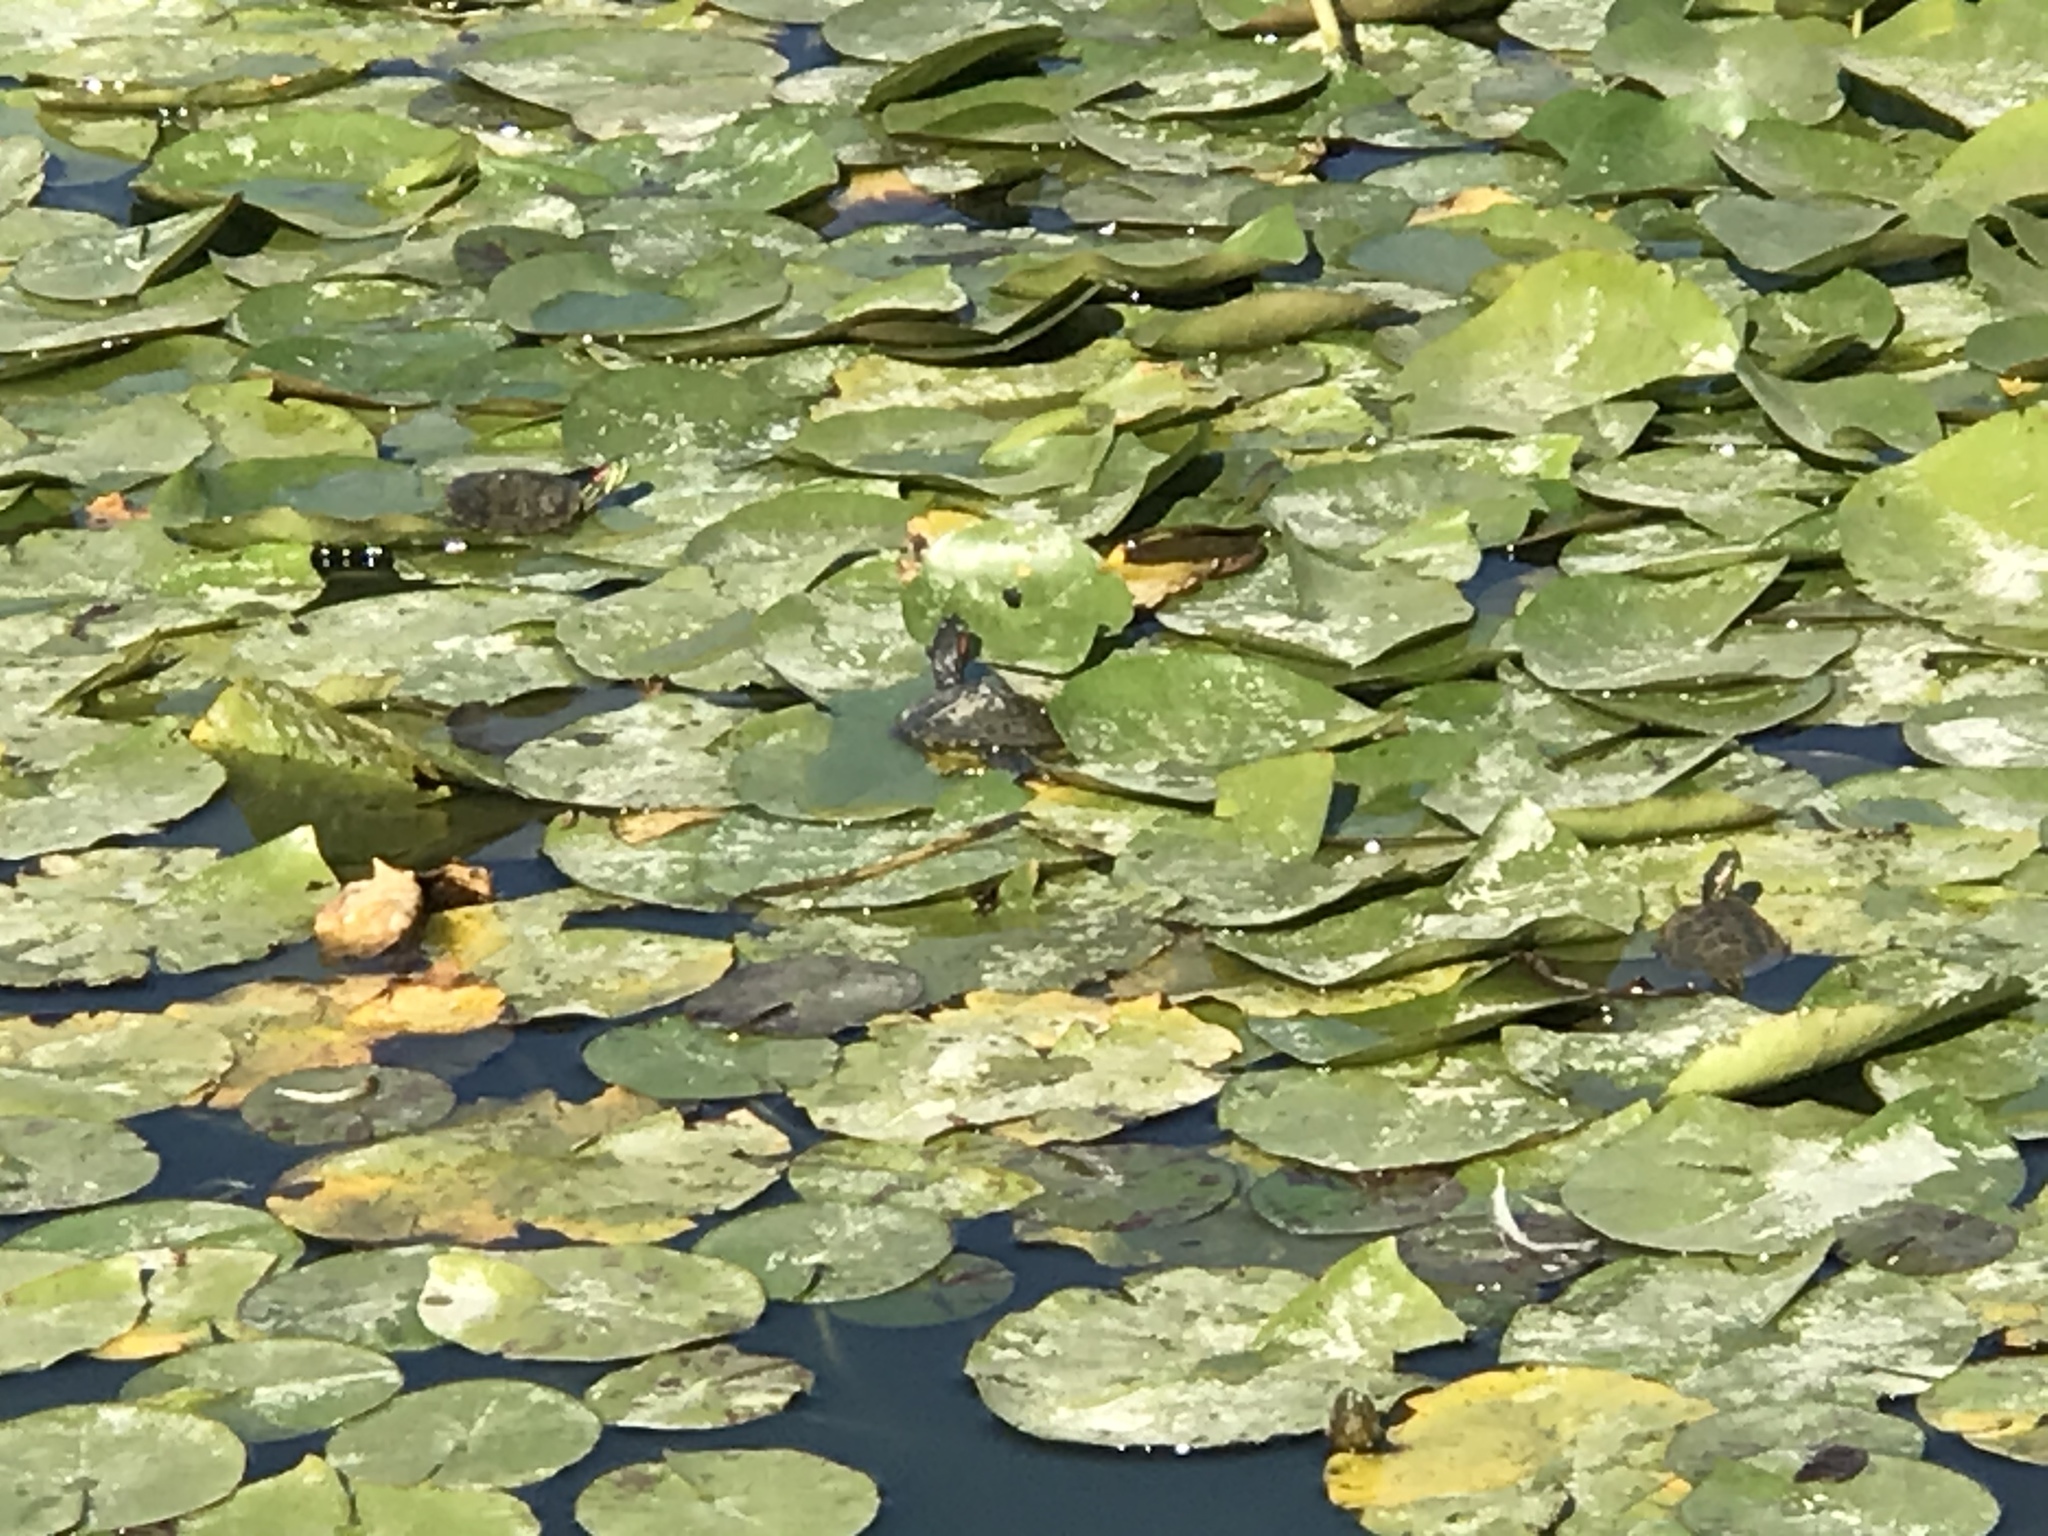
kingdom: Animalia
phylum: Chordata
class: Testudines
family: Emydidae
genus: Trachemys
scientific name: Trachemys scripta
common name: Slider
